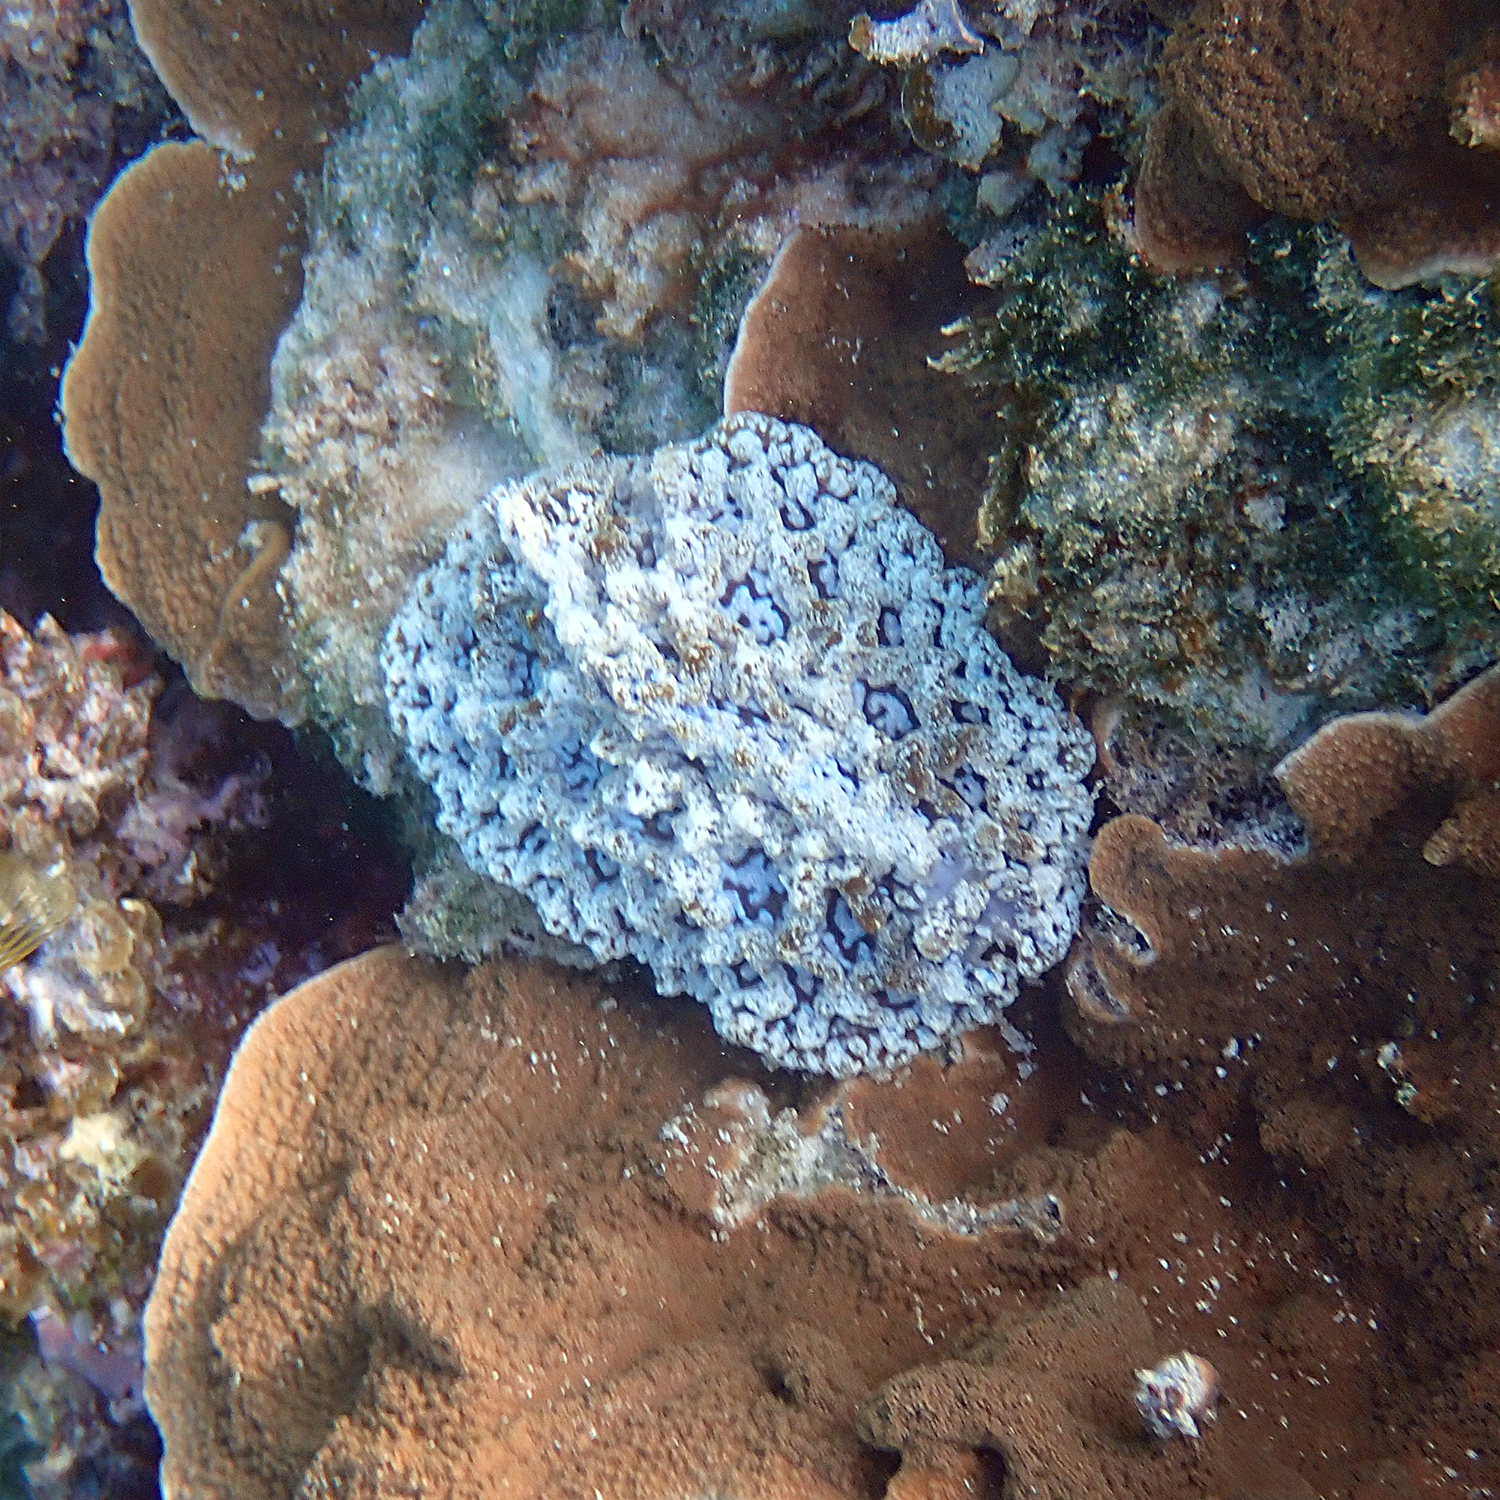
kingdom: Animalia
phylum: Mollusca
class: Gastropoda
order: Nudibranchia
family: Discodorididae
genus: Atagema
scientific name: Atagema spongiosa
